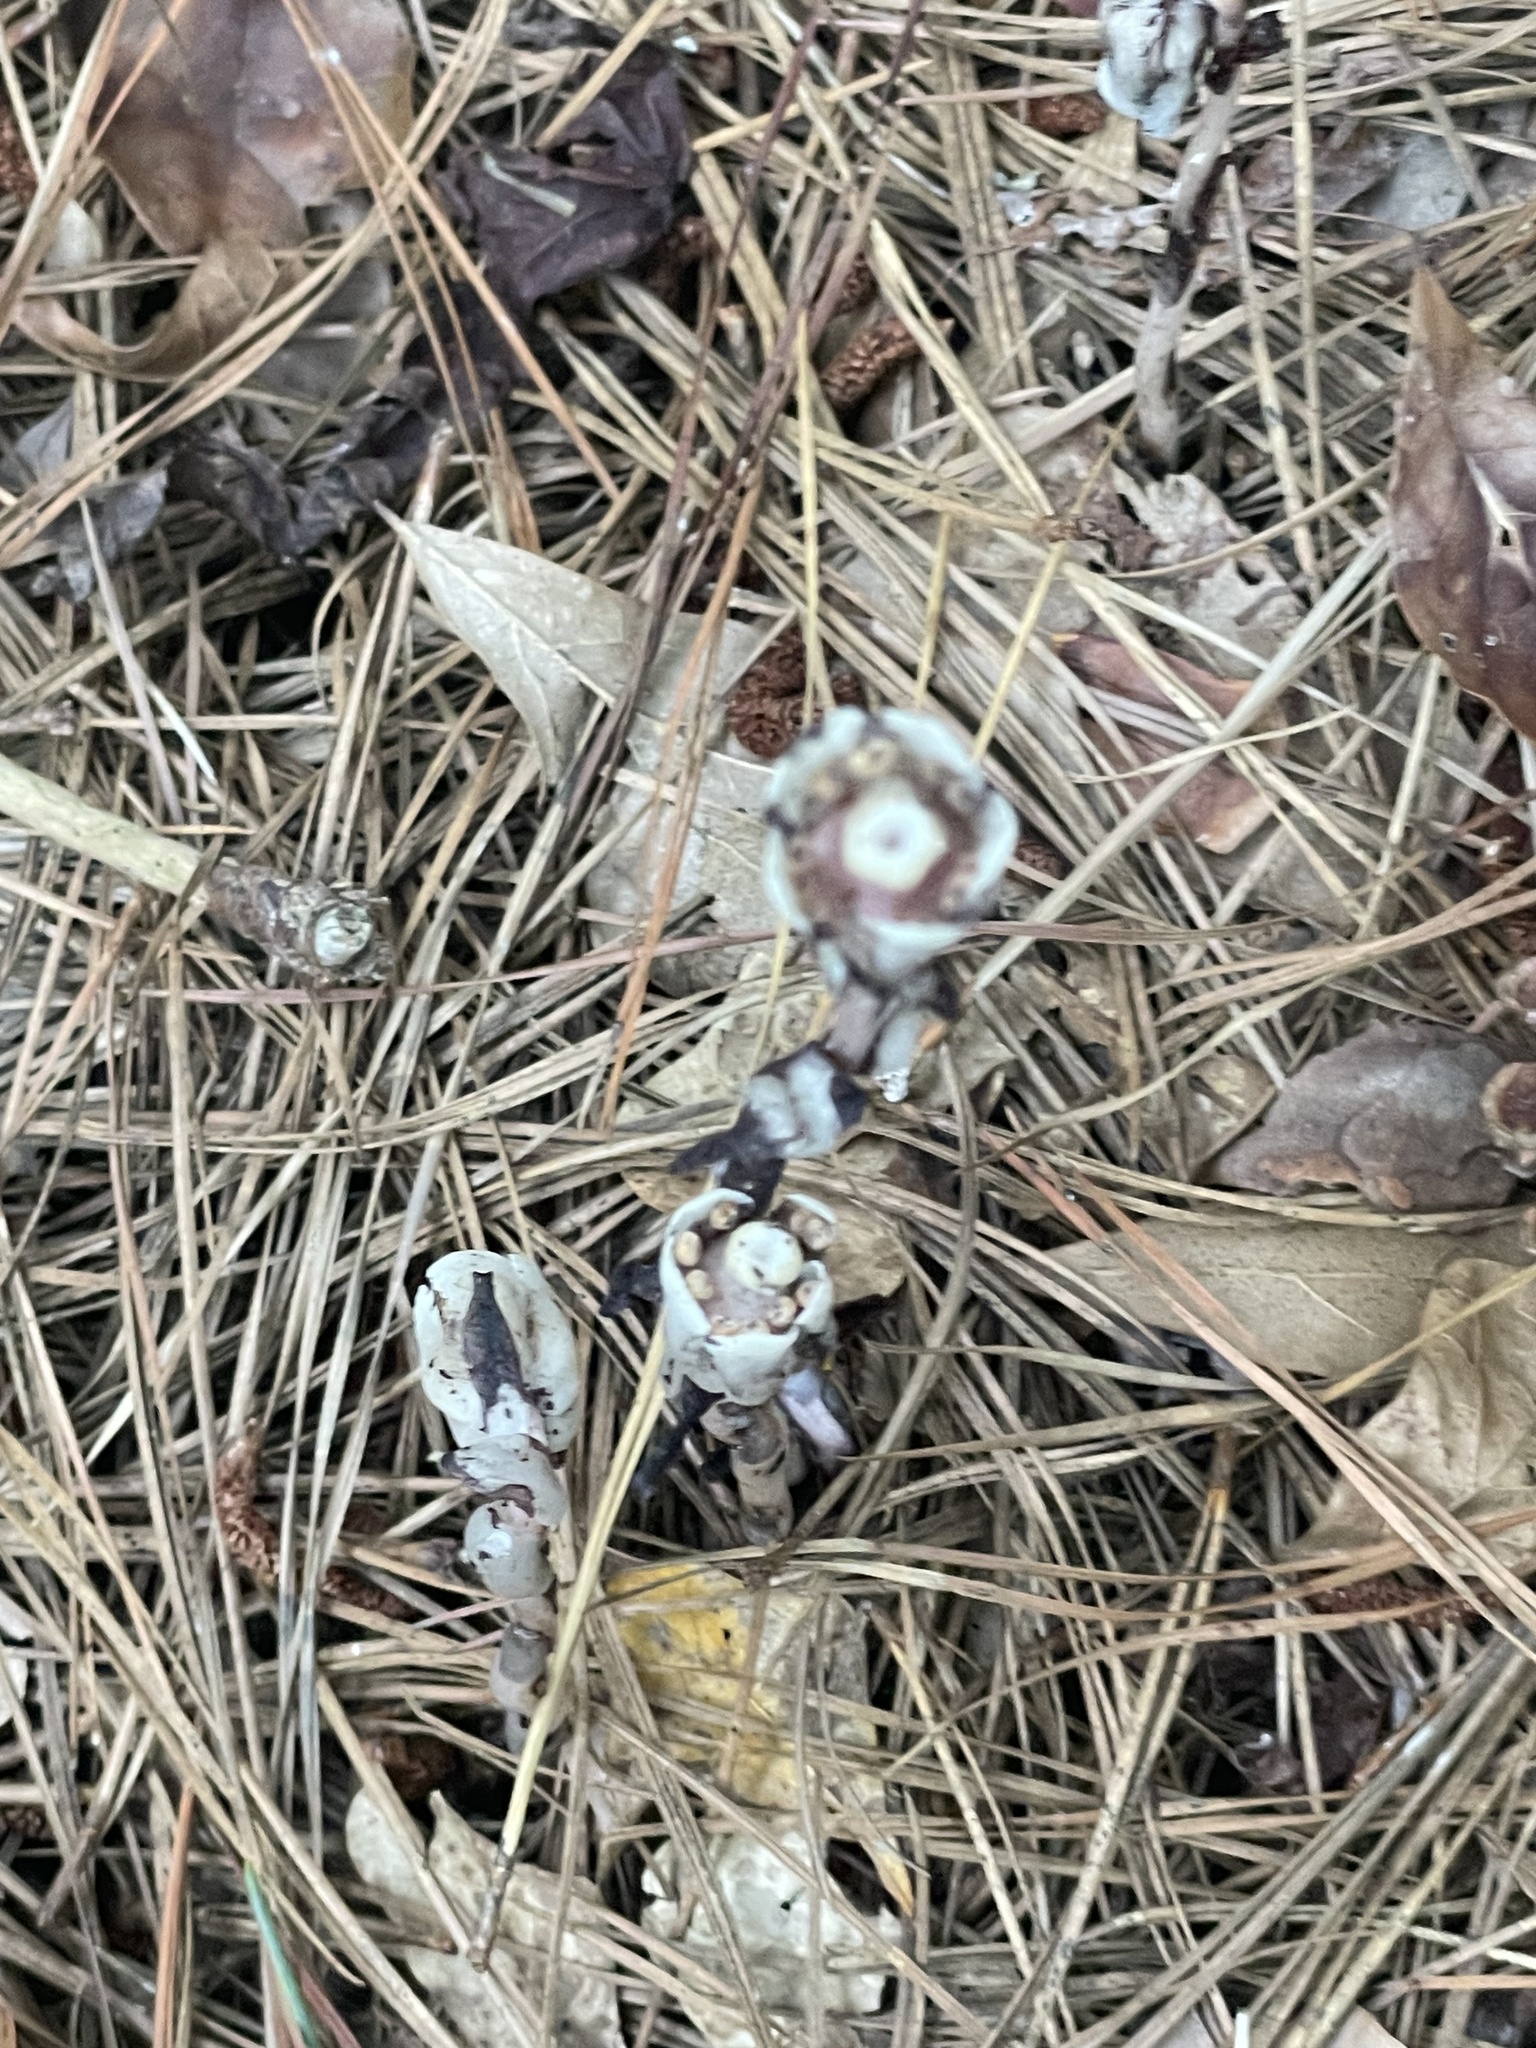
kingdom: Plantae
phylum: Tracheophyta
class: Magnoliopsida
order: Ericales
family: Ericaceae
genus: Monotropa
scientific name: Monotropa uniflora
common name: Convulsion root
